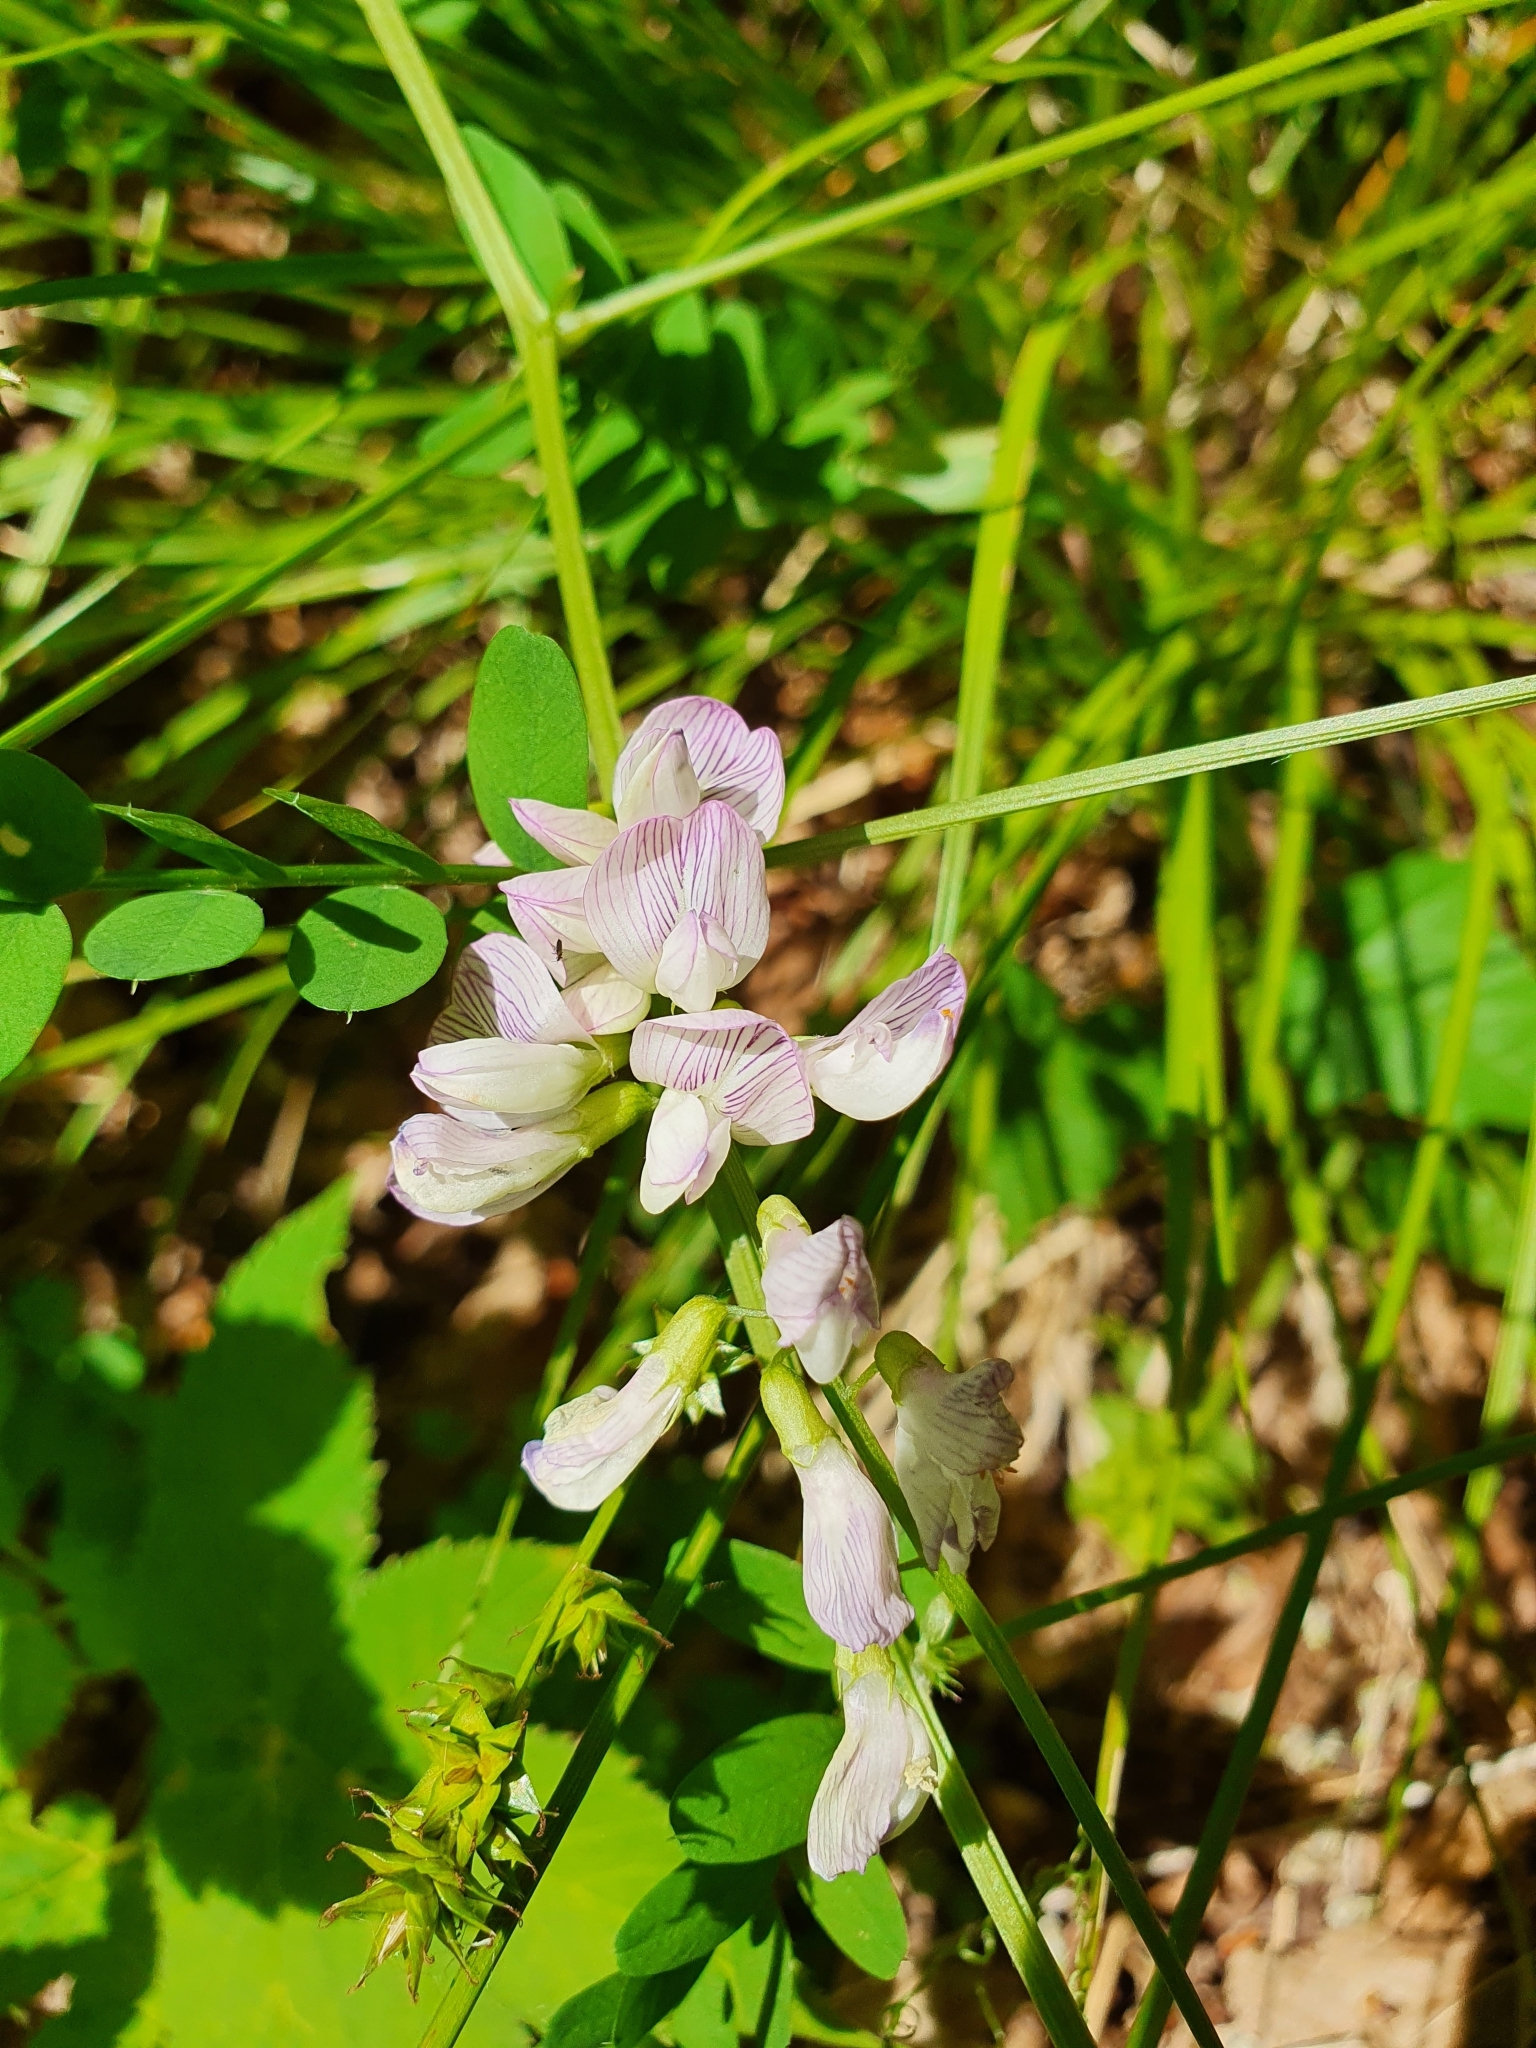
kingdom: Plantae
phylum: Tracheophyta
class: Magnoliopsida
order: Fabales
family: Fabaceae
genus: Vicia
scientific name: Vicia sylvatica
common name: Wood vetch
